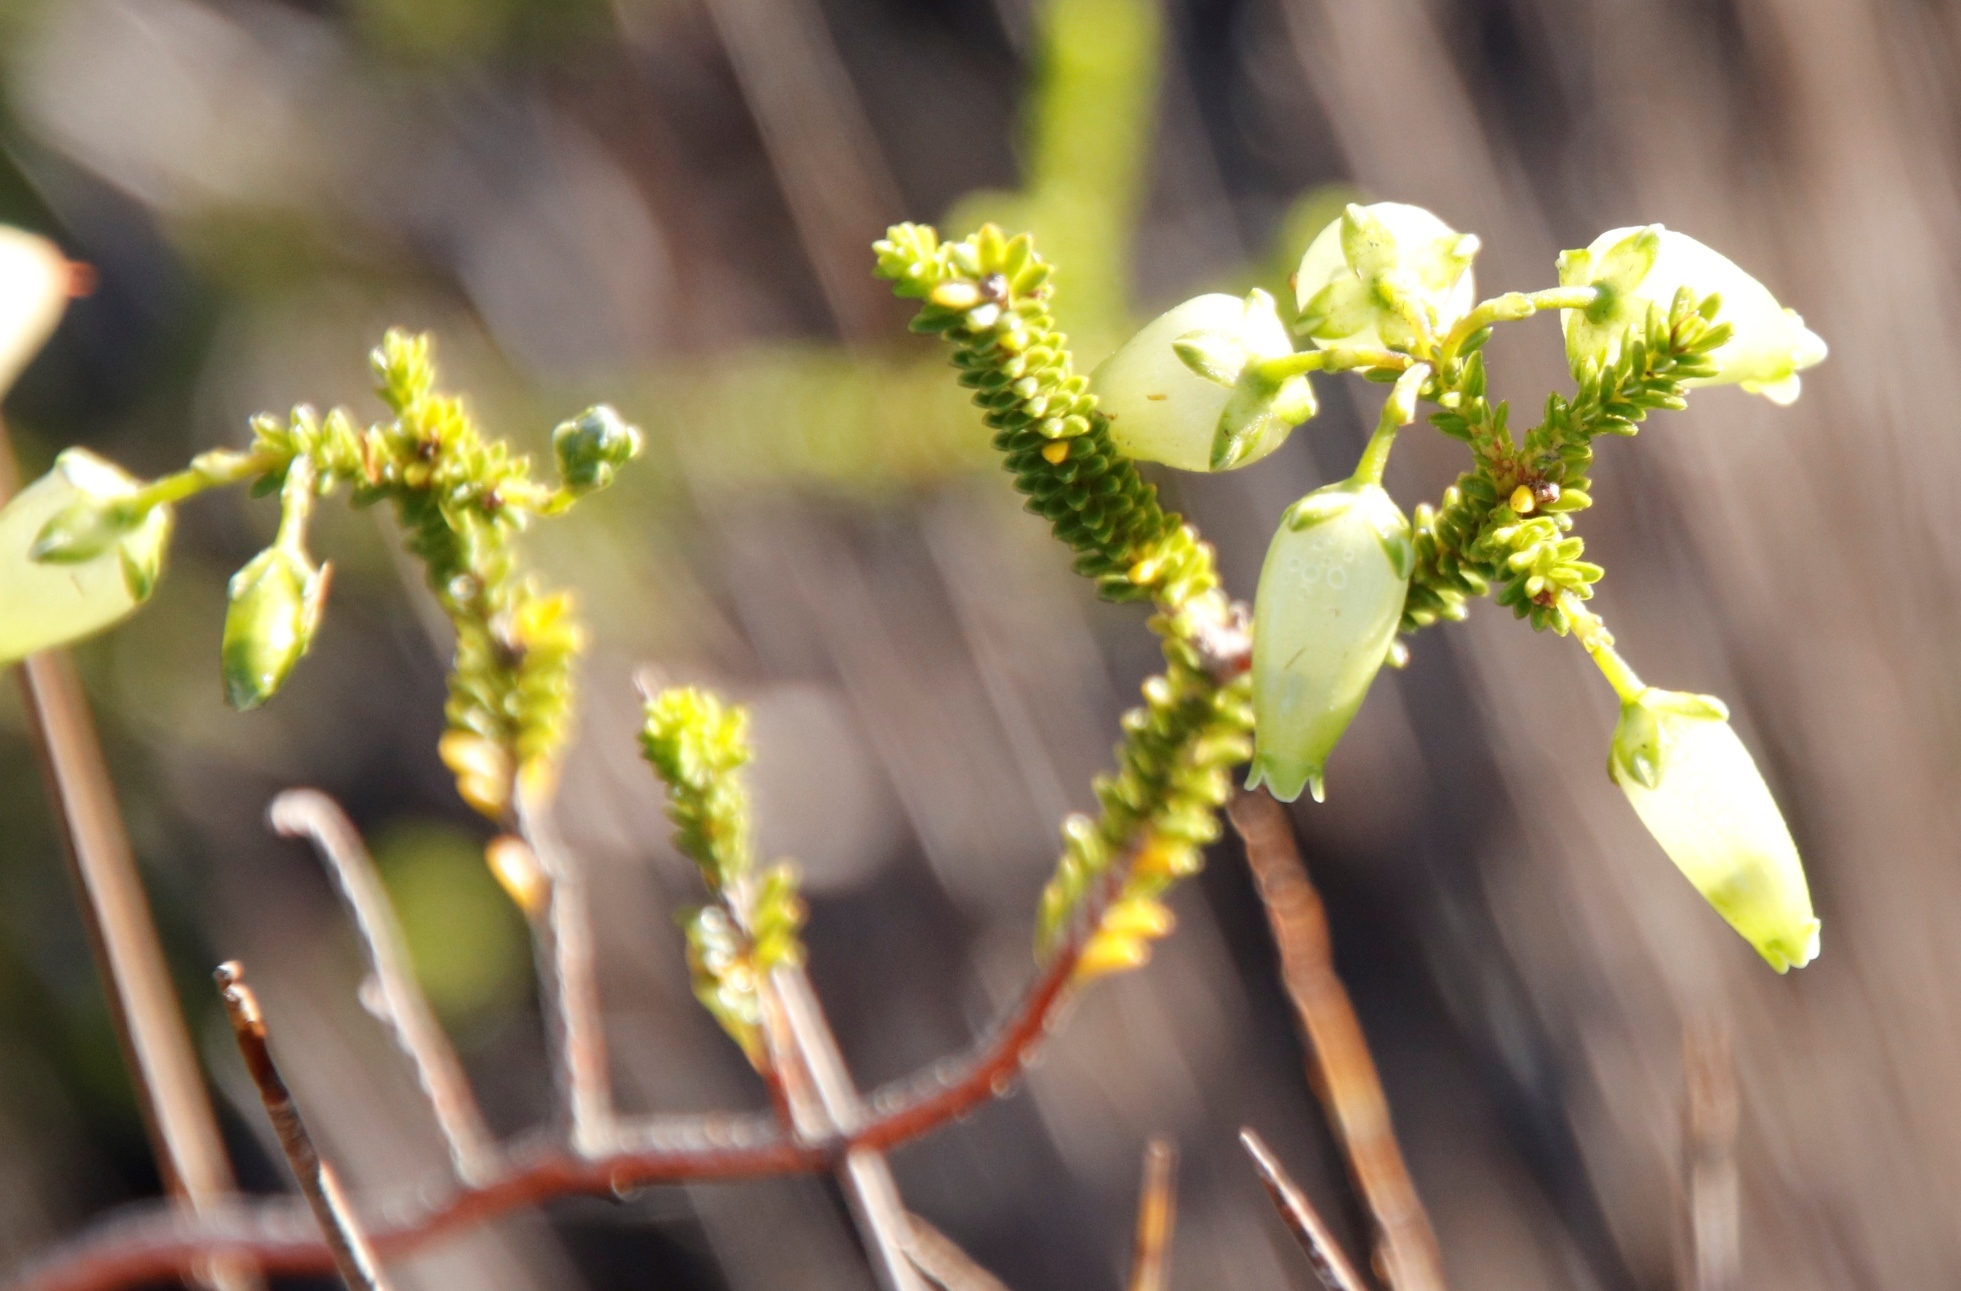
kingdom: Plantae
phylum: Tracheophyta
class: Magnoliopsida
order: Ericales
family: Ericaceae
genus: Erica
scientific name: Erica urna-viridis
